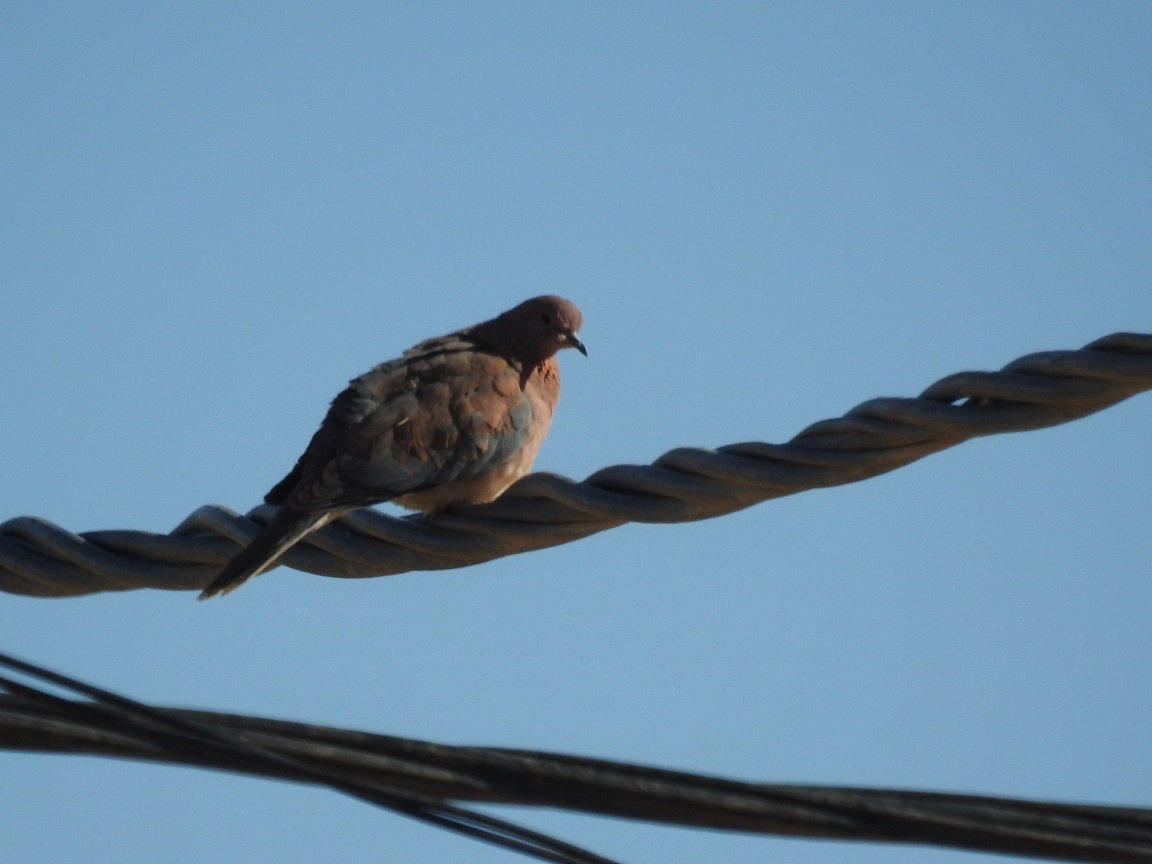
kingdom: Animalia
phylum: Chordata
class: Aves
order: Columbiformes
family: Columbidae
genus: Spilopelia
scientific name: Spilopelia senegalensis
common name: Laughing dove
